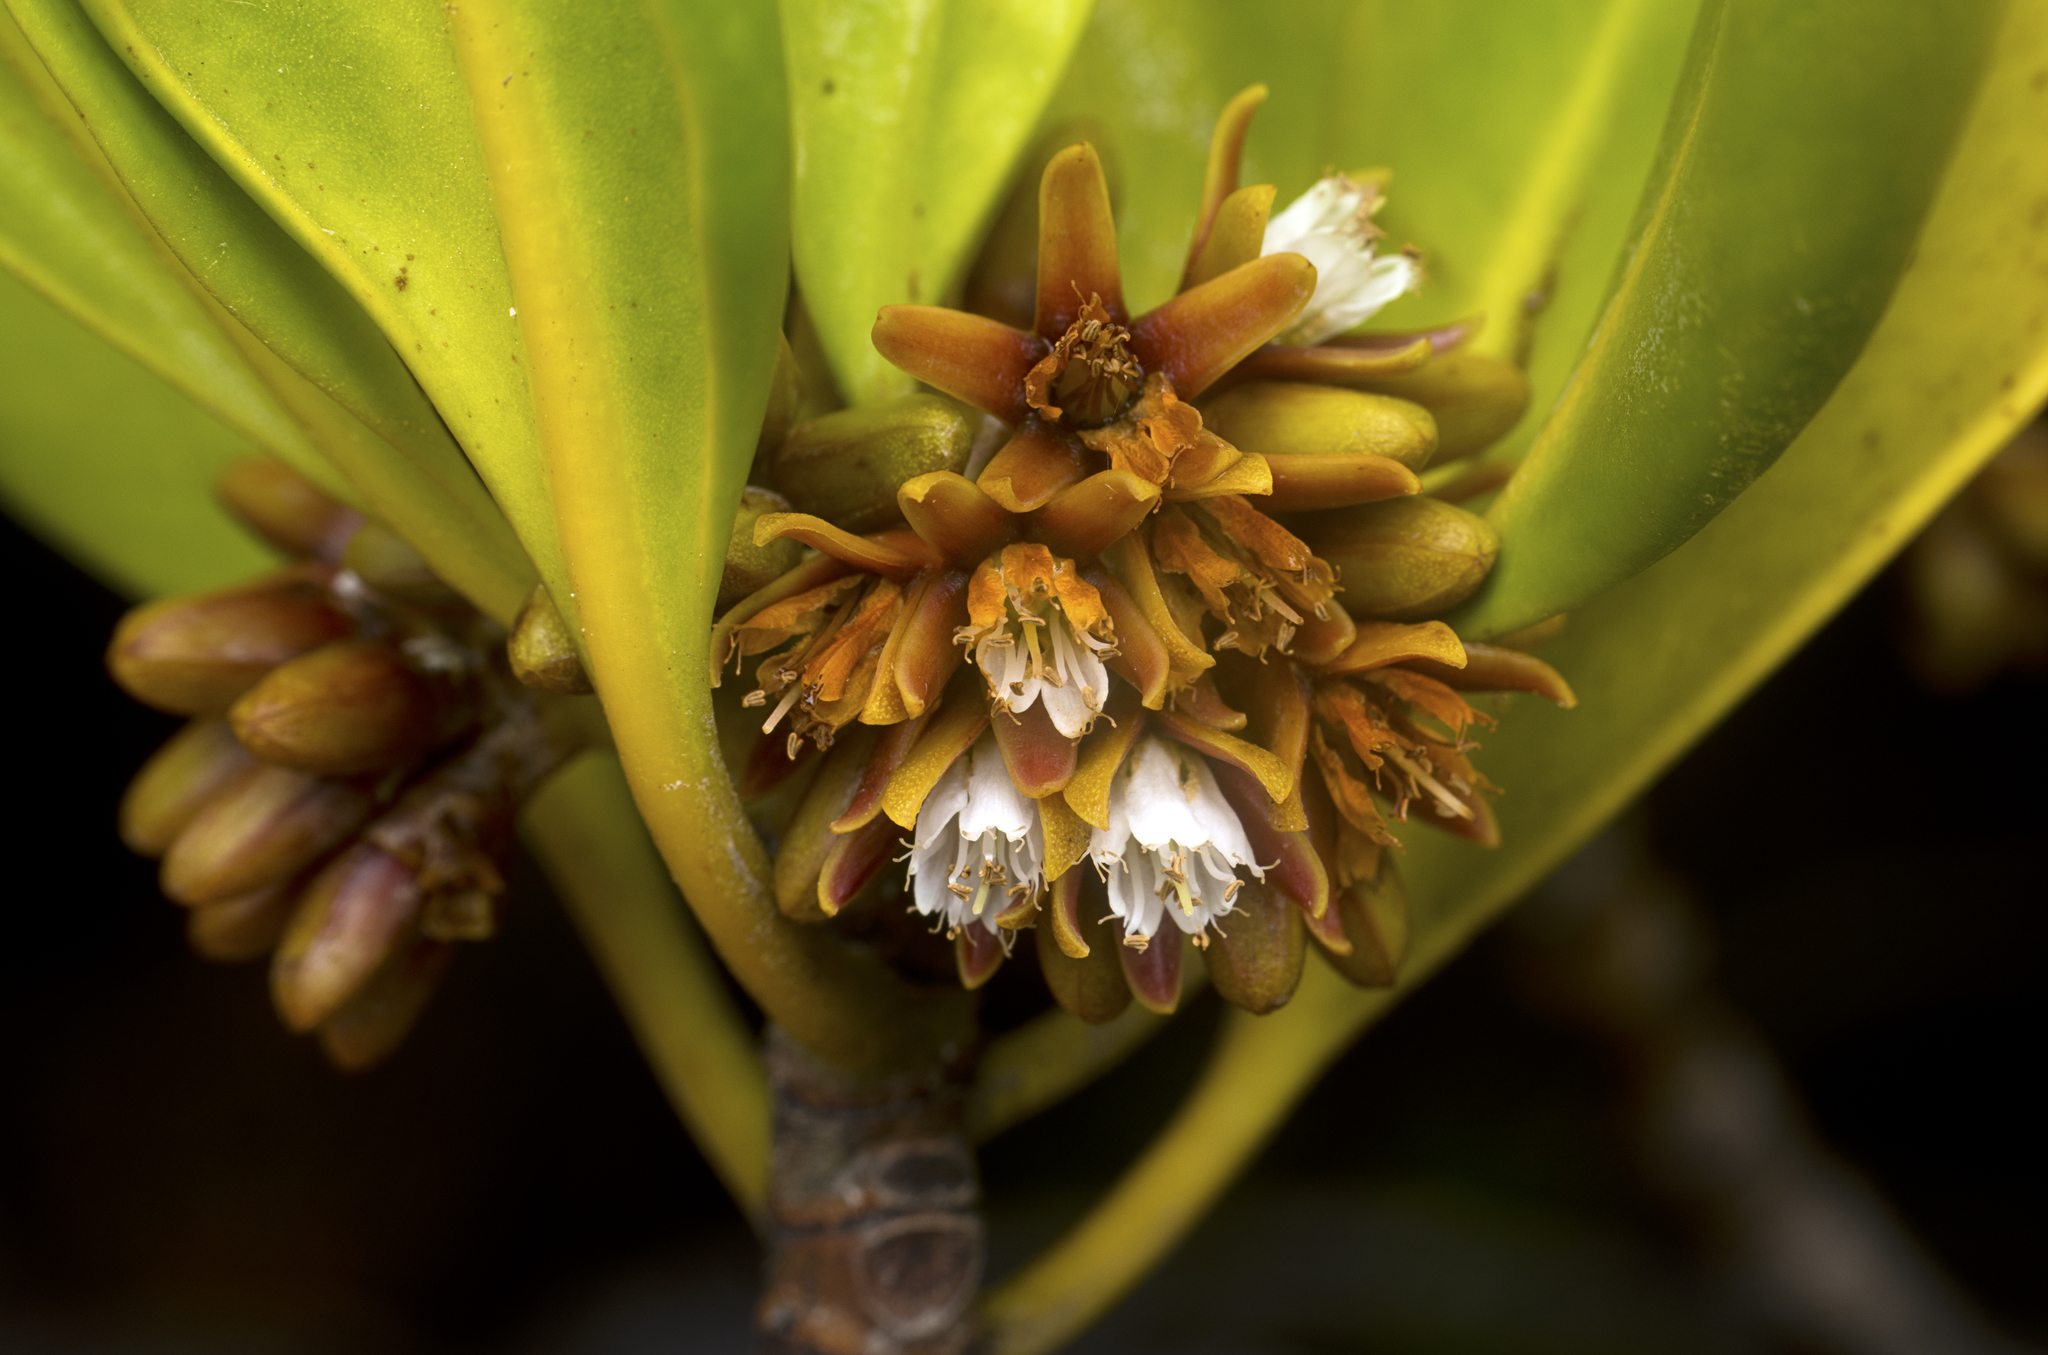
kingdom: Plantae
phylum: Tracheophyta
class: Magnoliopsida
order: Malpighiales
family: Rhizophoraceae
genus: Ceriops
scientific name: Ceriops australis
